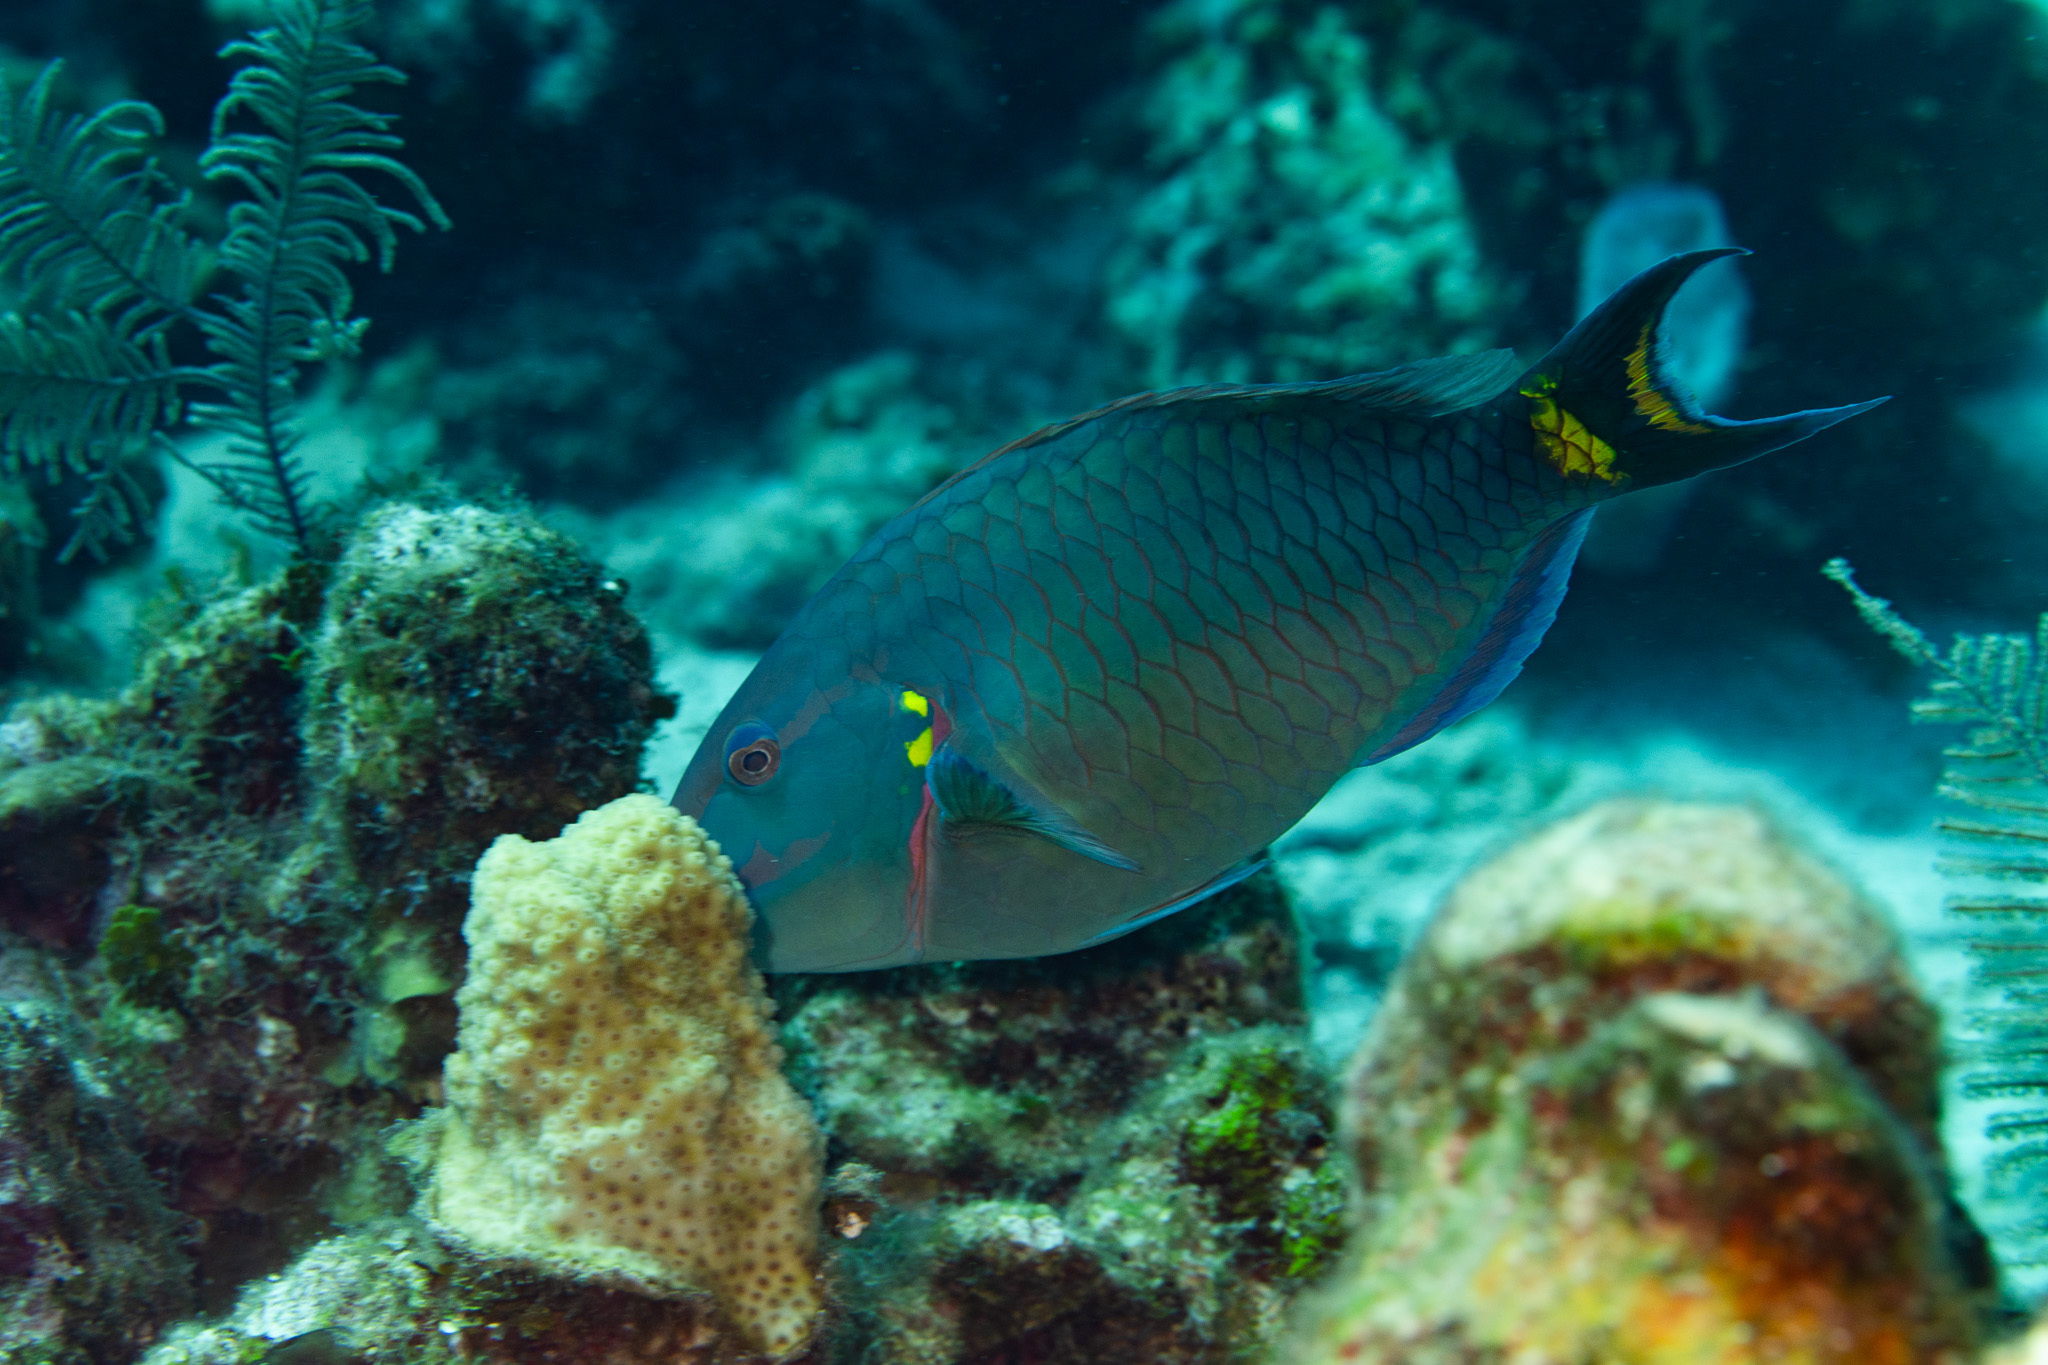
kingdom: Animalia
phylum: Chordata
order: Perciformes
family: Scaridae
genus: Sparisoma
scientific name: Sparisoma viride
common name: Stoplight parrotfish
